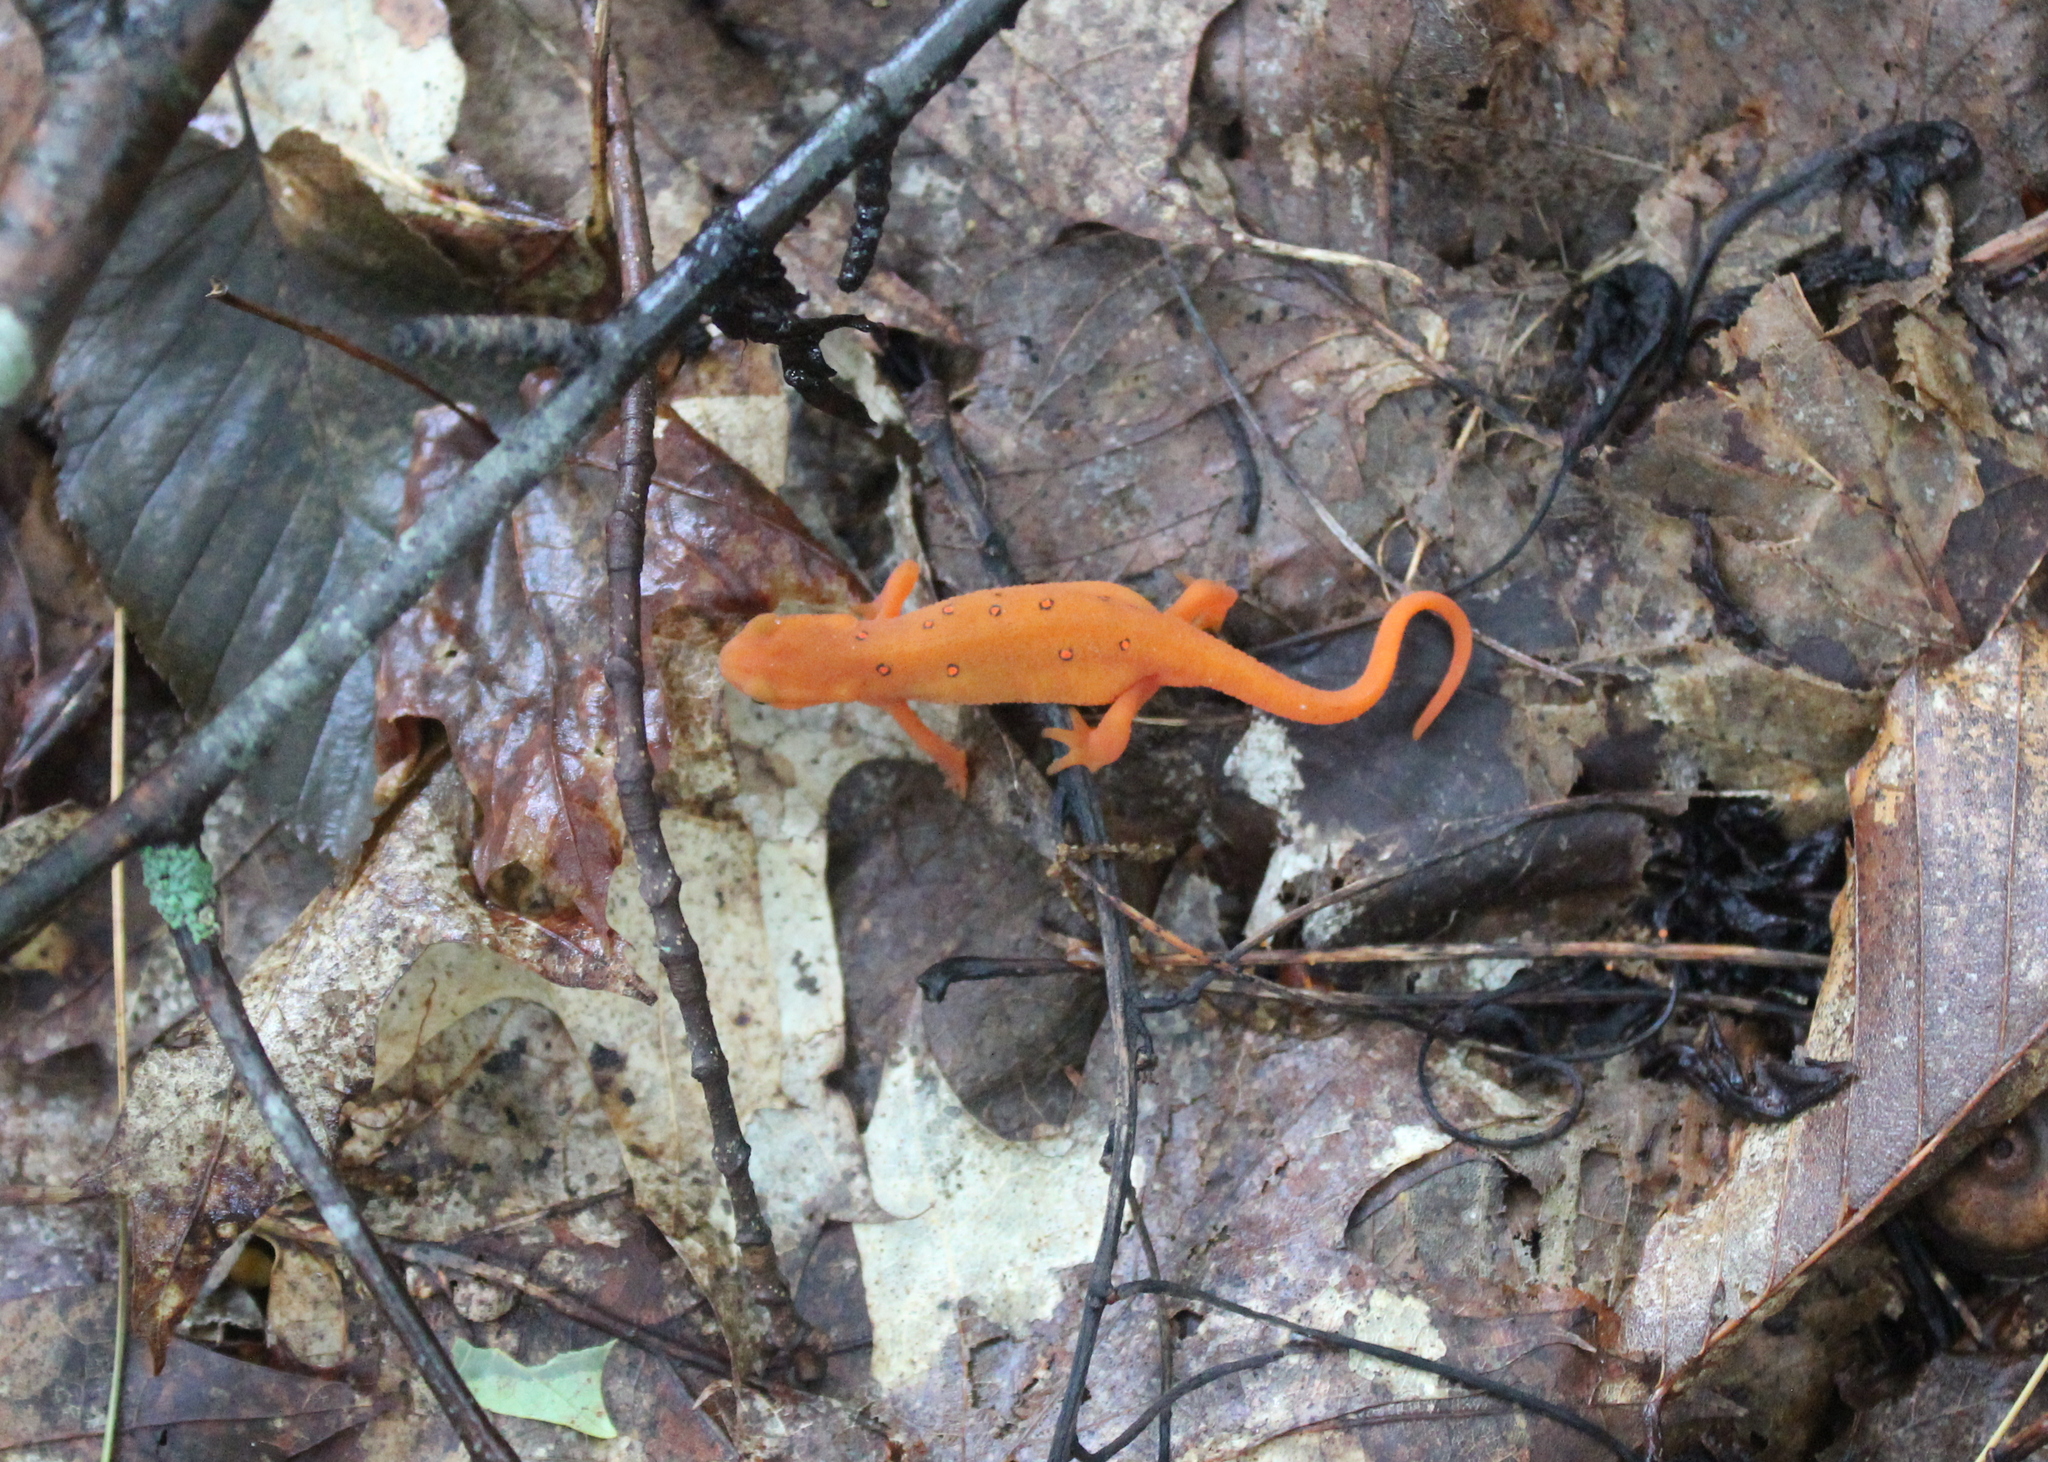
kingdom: Animalia
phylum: Chordata
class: Amphibia
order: Caudata
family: Salamandridae
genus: Notophthalmus
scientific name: Notophthalmus viridescens
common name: Eastern newt
